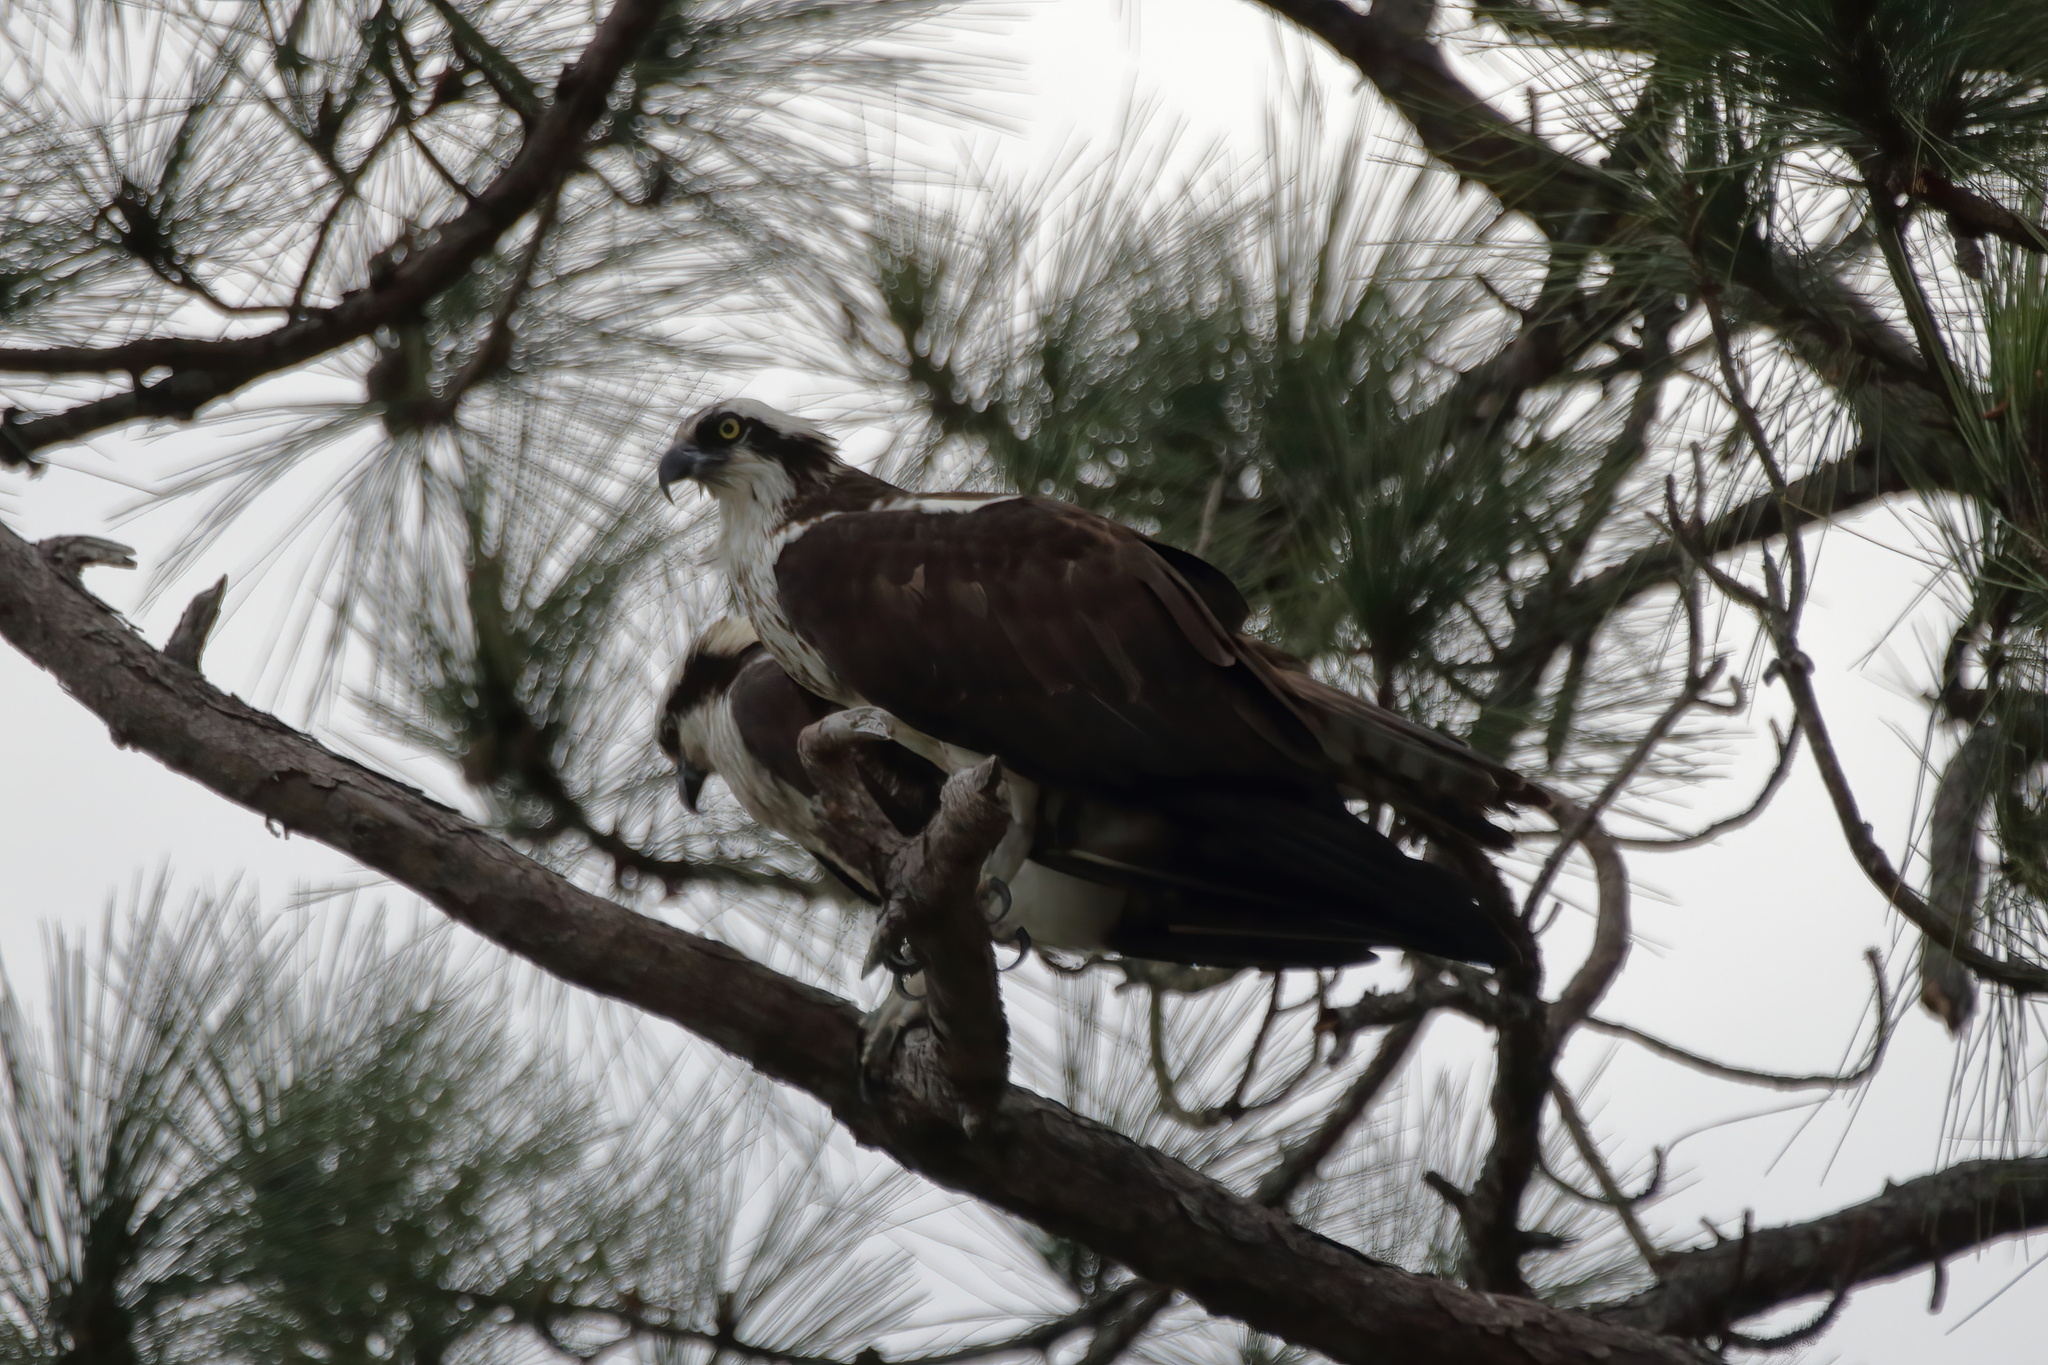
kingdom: Animalia
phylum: Chordata
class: Aves
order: Accipitriformes
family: Pandionidae
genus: Pandion
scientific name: Pandion haliaetus
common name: Osprey
